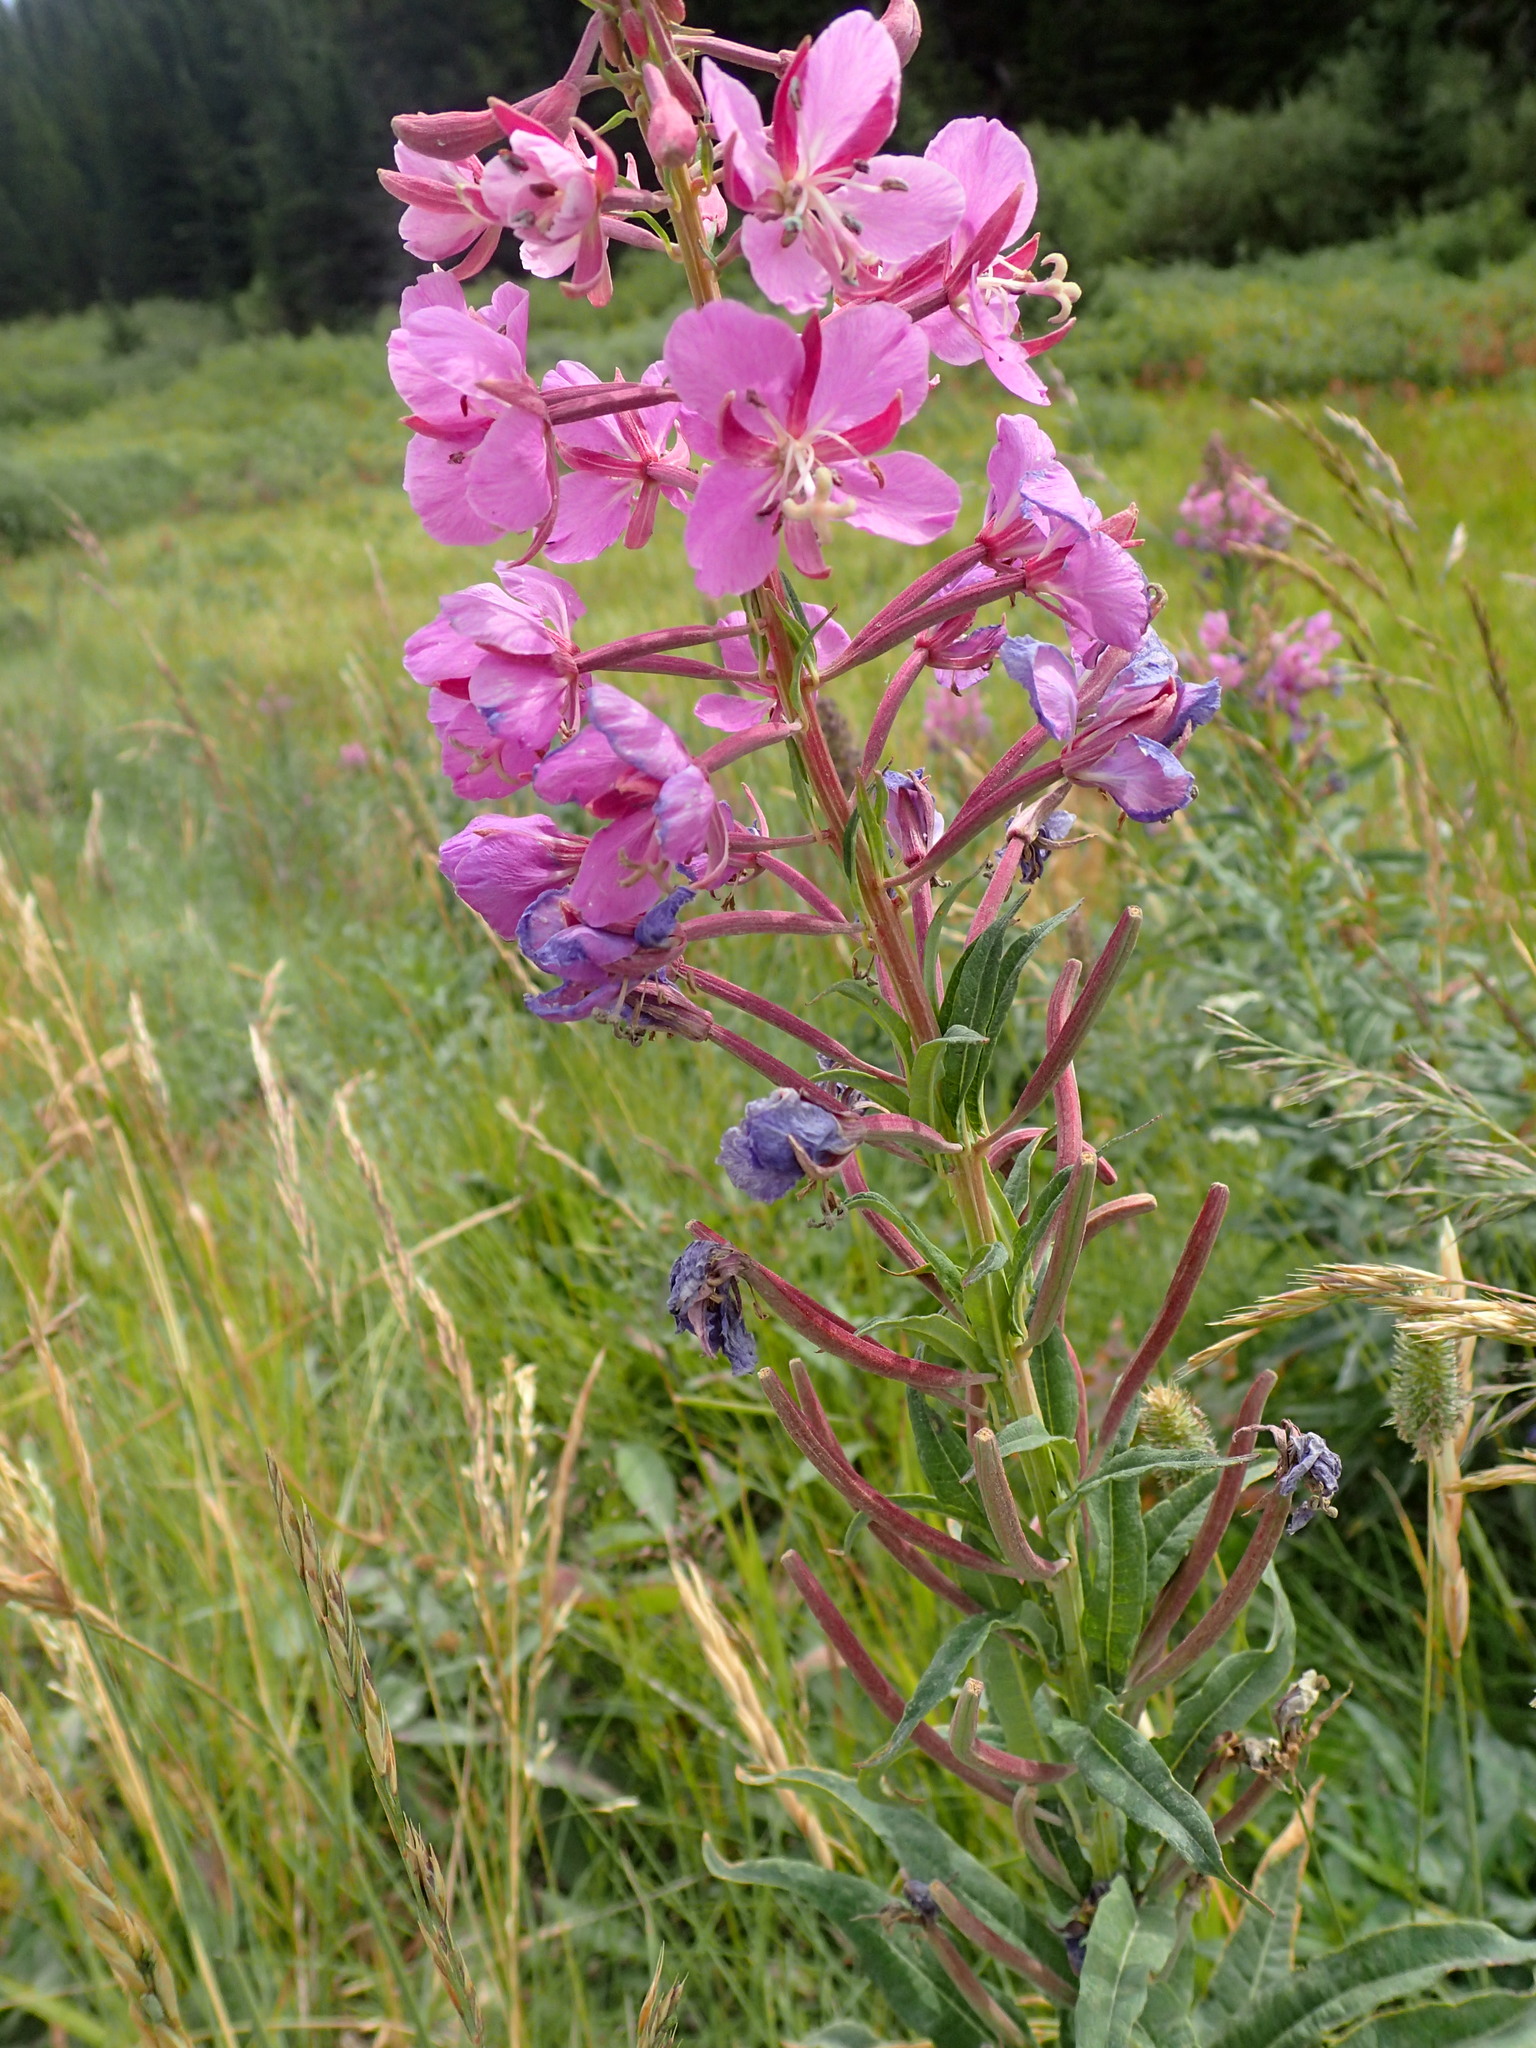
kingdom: Plantae
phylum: Tracheophyta
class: Magnoliopsida
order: Myrtales
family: Onagraceae
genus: Chamaenerion
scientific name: Chamaenerion angustifolium
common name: Fireweed
